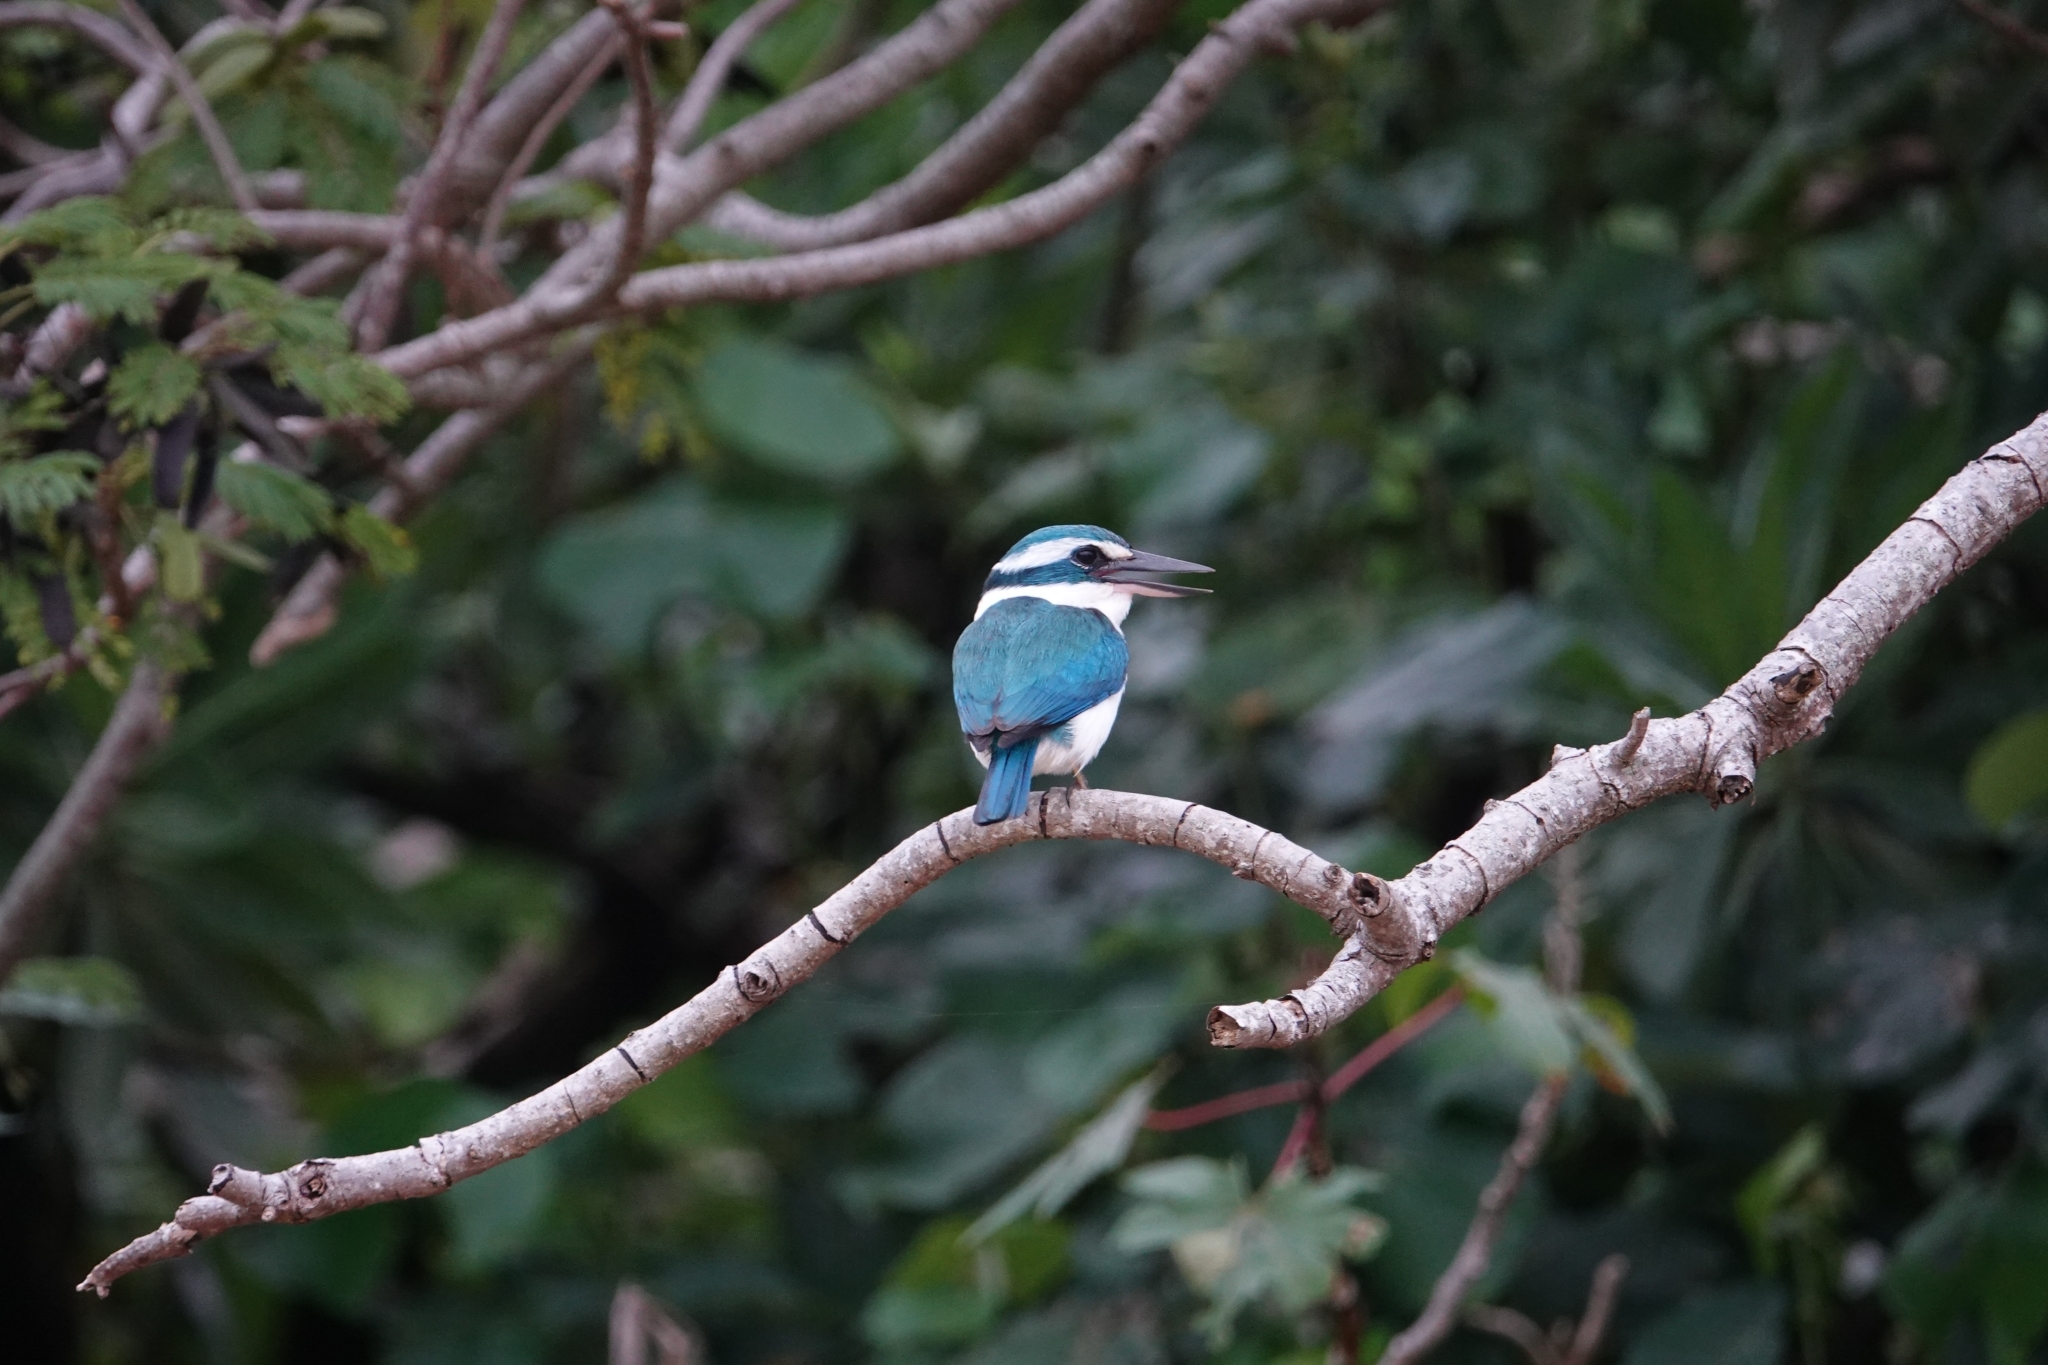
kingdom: Animalia
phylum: Chordata
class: Aves
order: Coraciiformes
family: Alcedinidae
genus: Todiramphus
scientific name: Todiramphus sacer
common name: Pacific kingfisher
